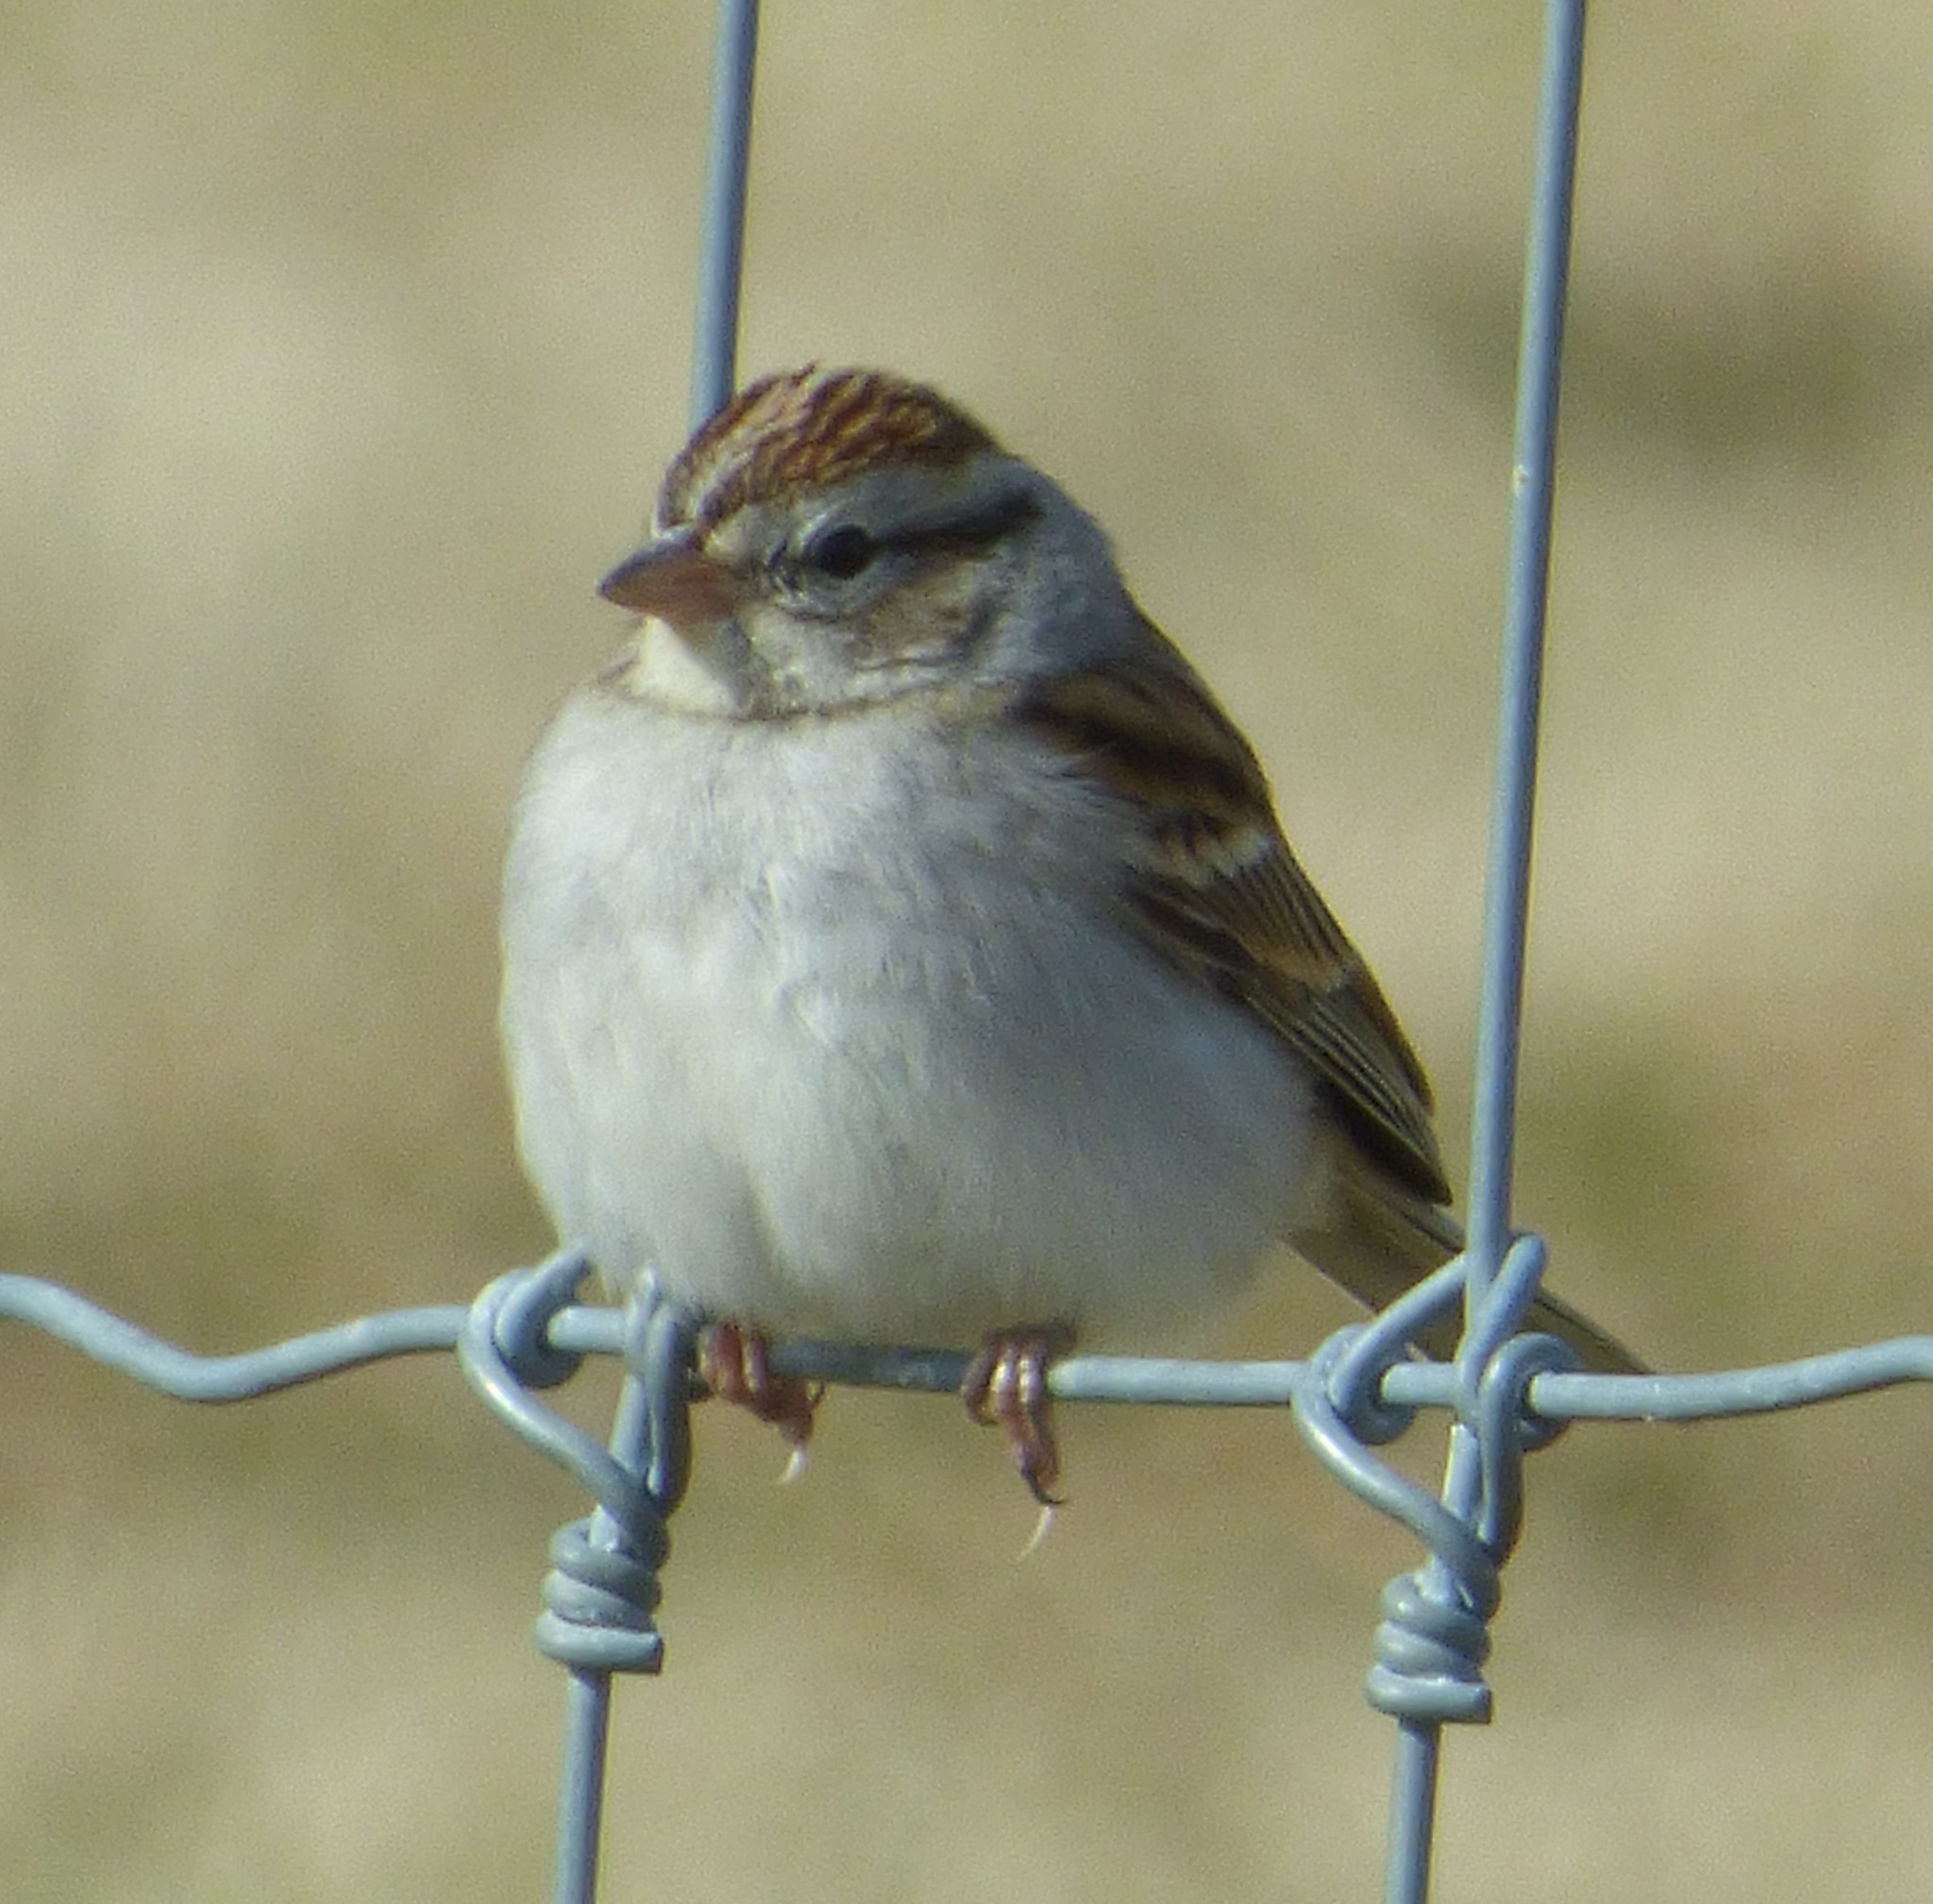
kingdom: Animalia
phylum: Chordata
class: Aves
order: Passeriformes
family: Passerellidae
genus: Spizella
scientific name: Spizella passerina
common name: Chipping sparrow
